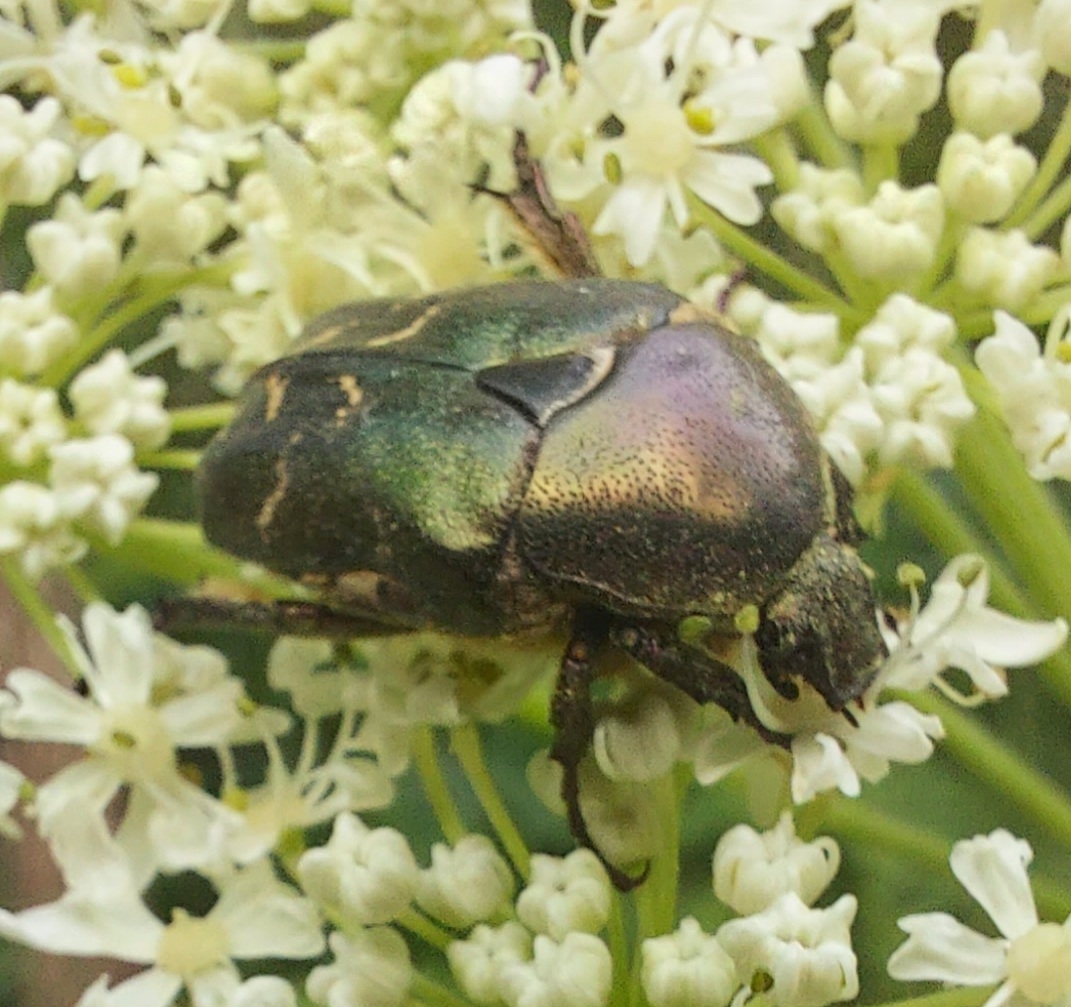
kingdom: Animalia
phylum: Arthropoda
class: Insecta
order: Coleoptera
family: Scarabaeidae
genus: Protaetia
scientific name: Protaetia cuprea
